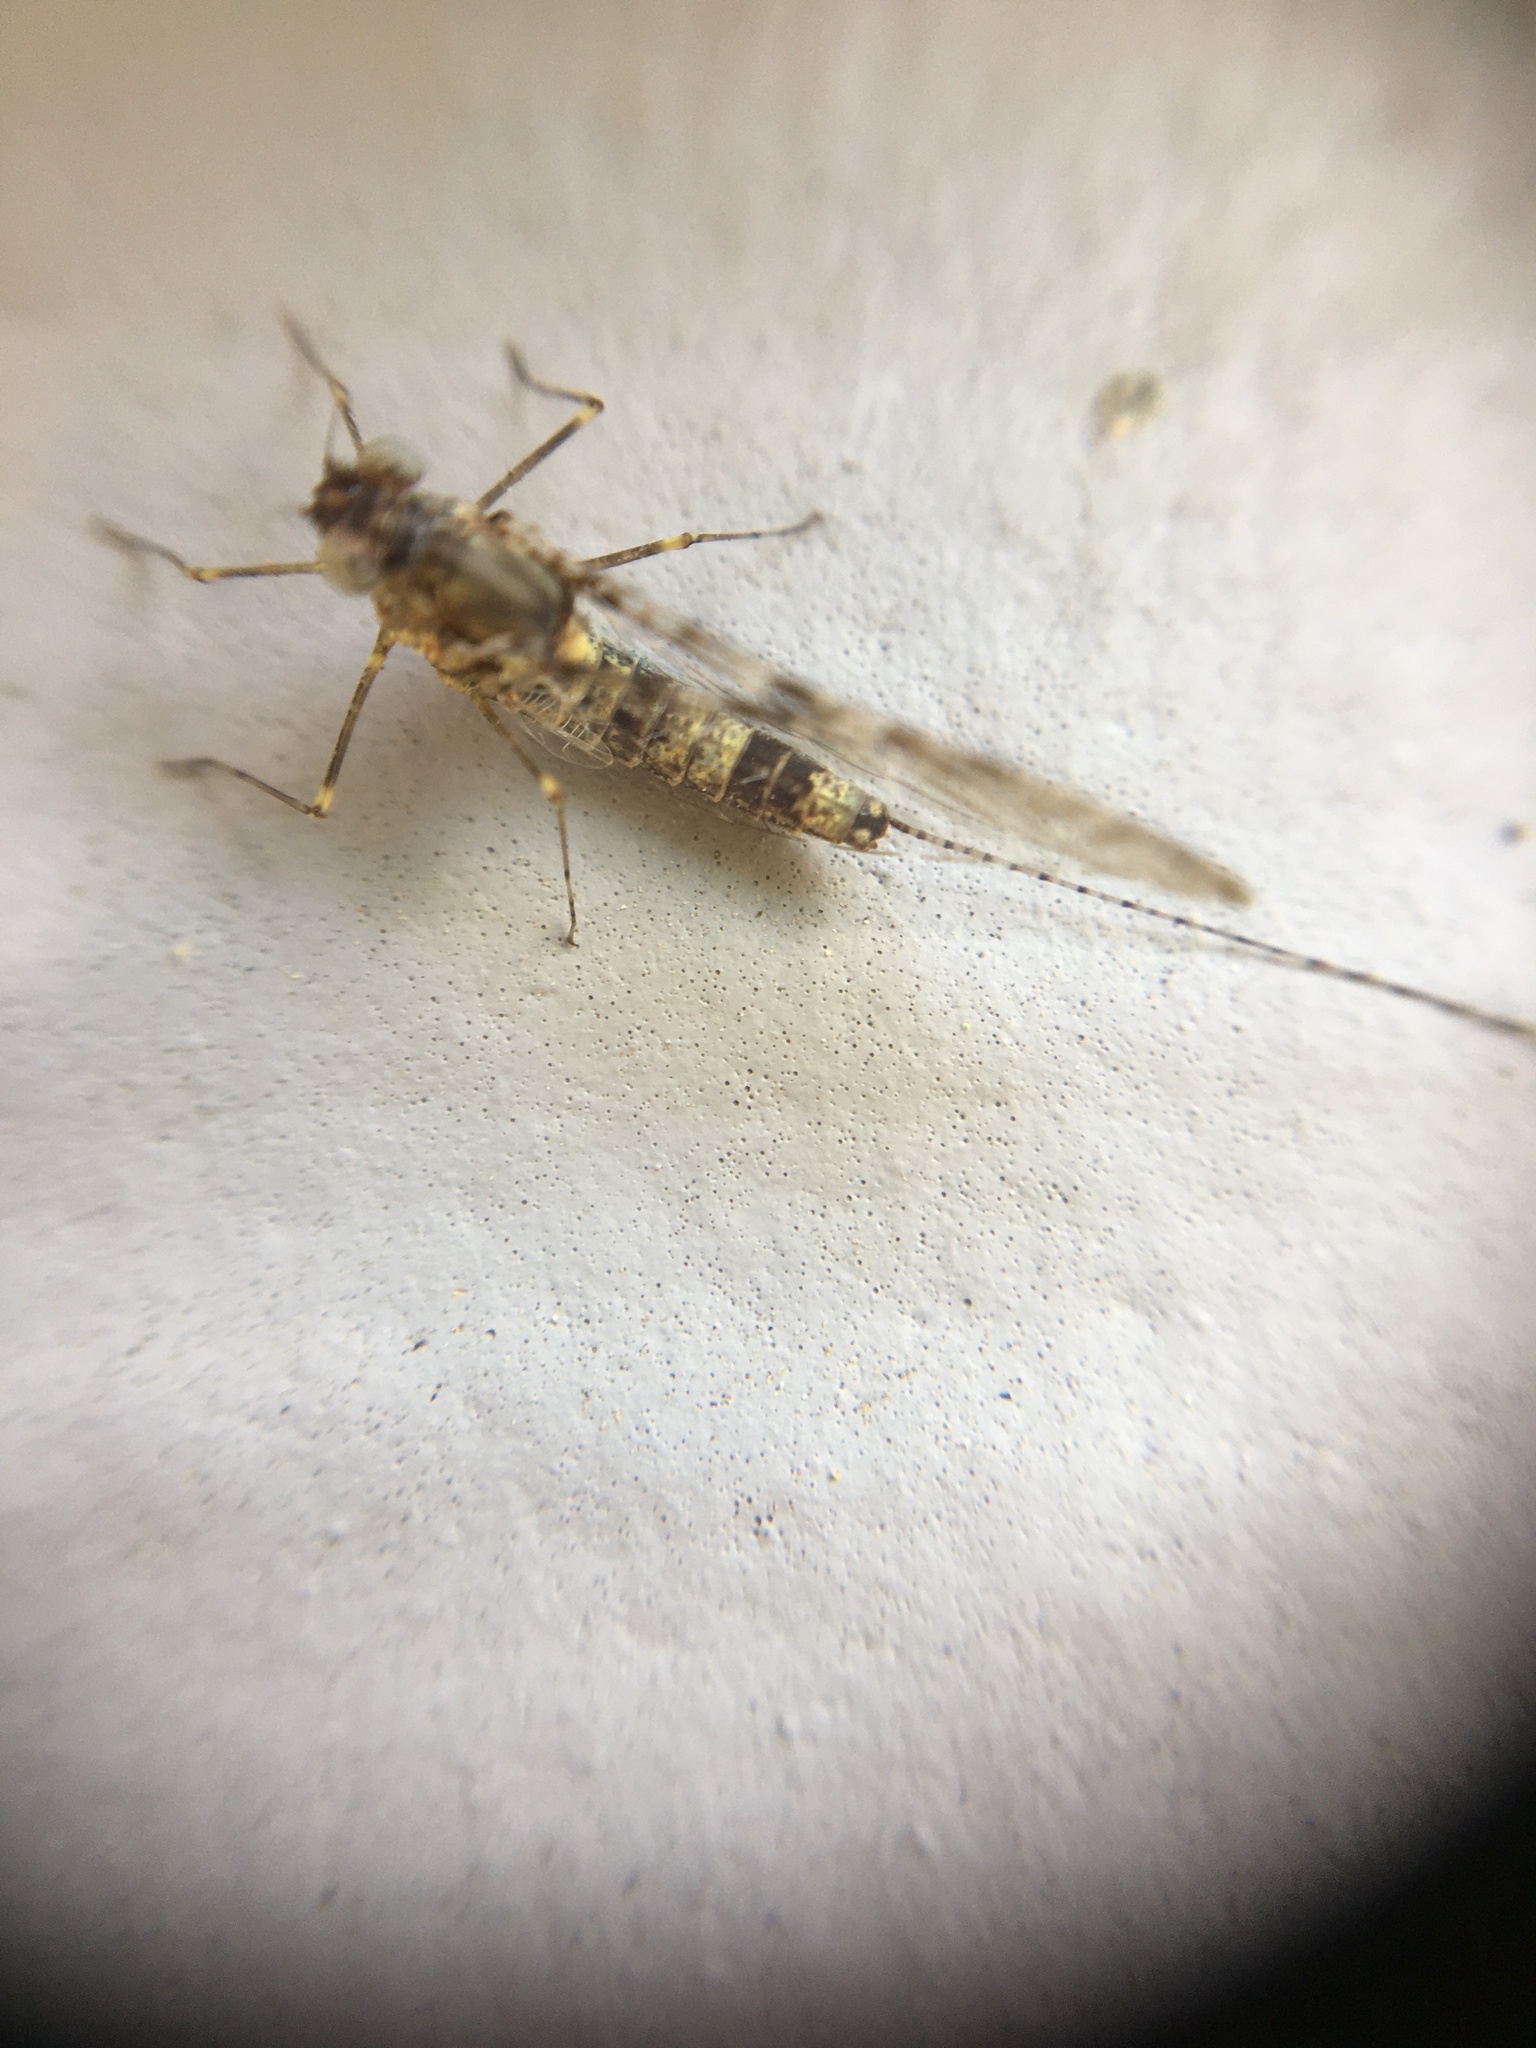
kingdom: Animalia
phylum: Arthropoda
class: Insecta
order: Ephemeroptera
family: Baetidae
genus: Callibaetis
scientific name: Callibaetis pictus
